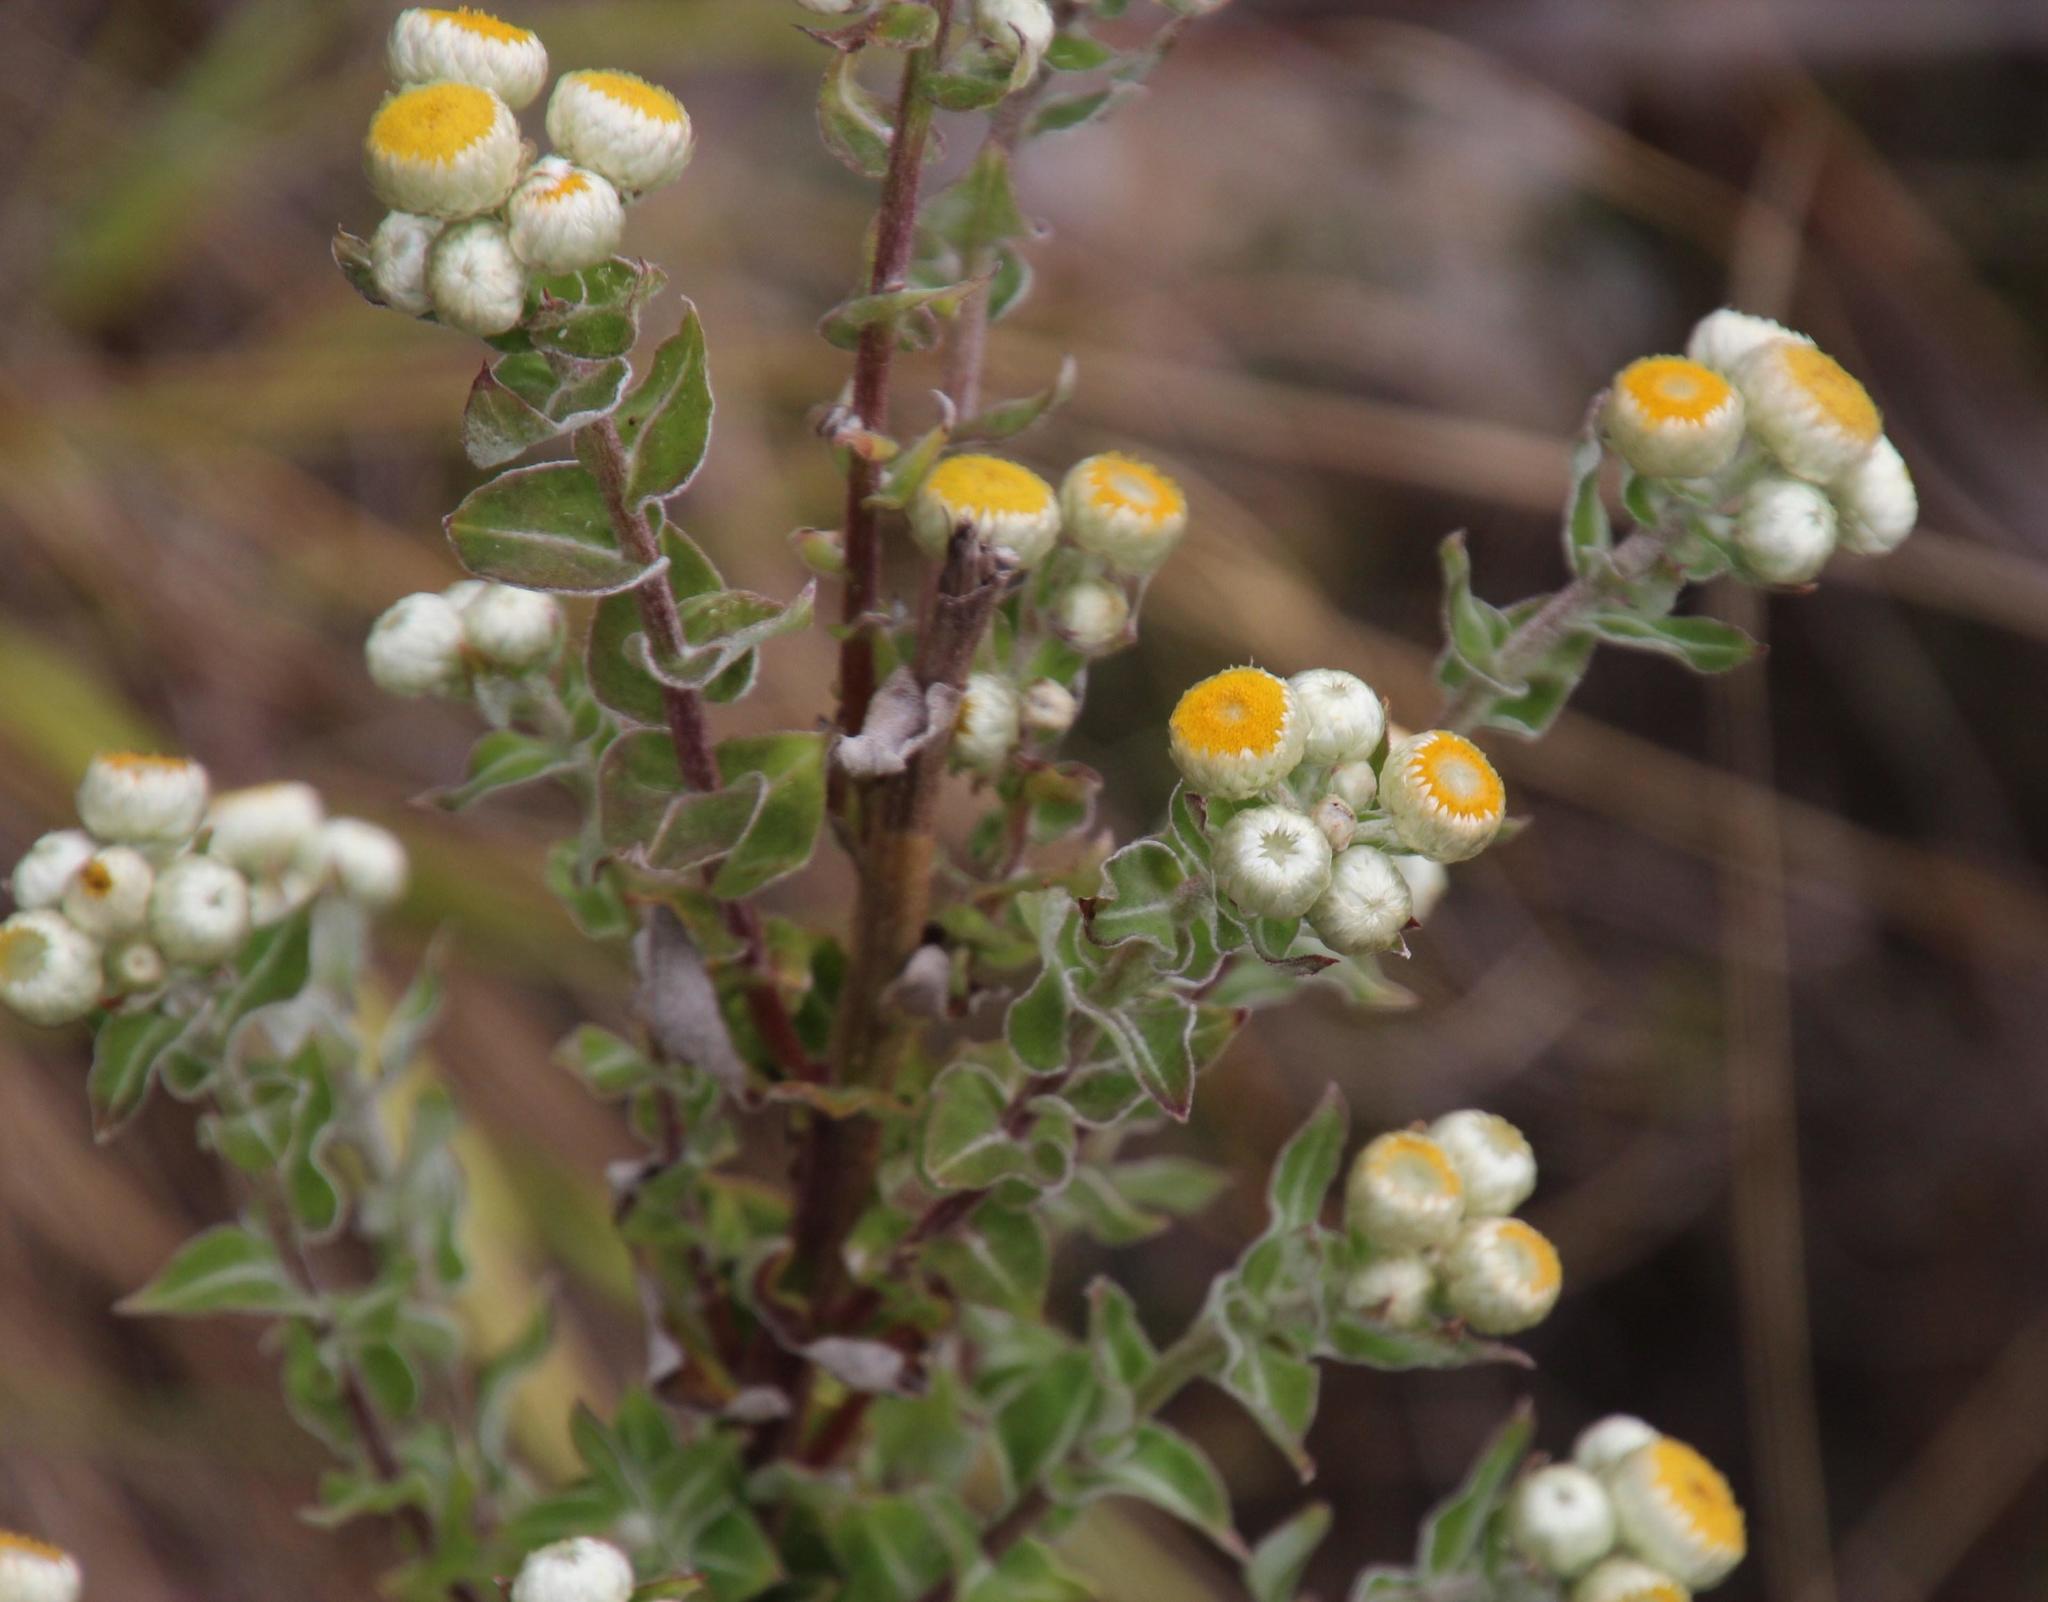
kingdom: Plantae
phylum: Tracheophyta
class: Magnoliopsida
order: Asterales
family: Asteraceae
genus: Helichrysum
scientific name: Helichrysum foetidum
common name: Stinking everlasting
